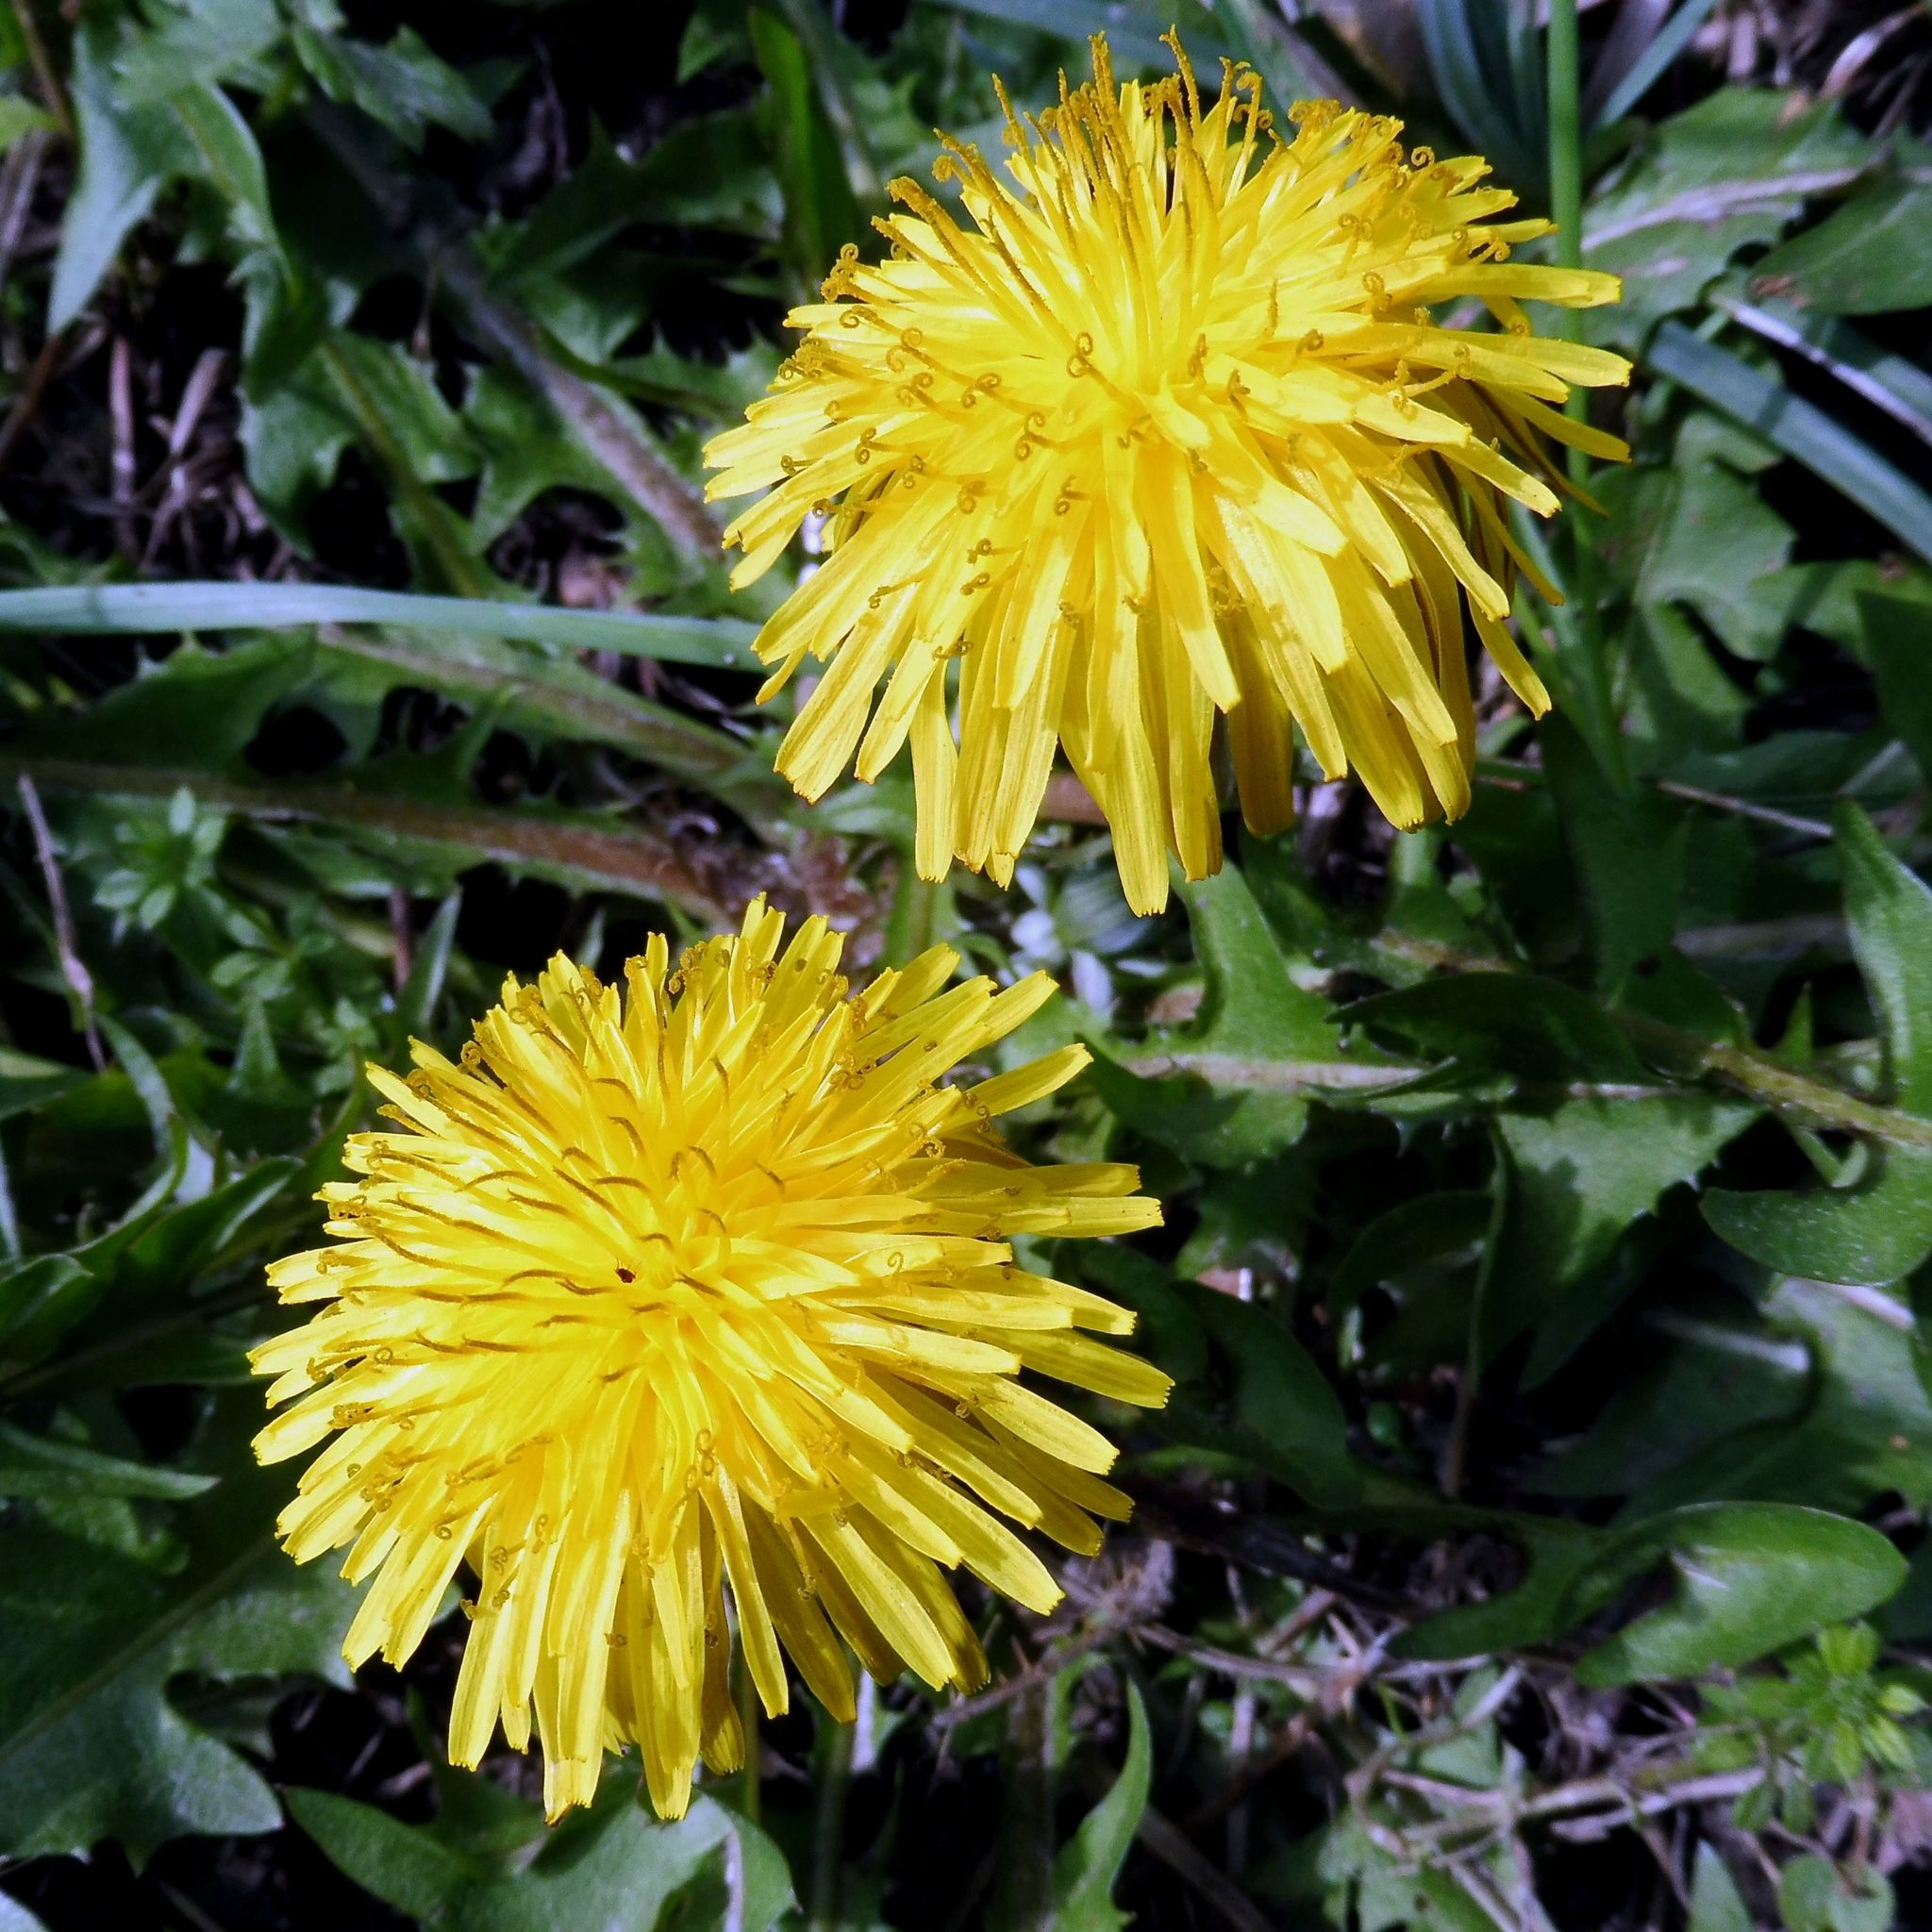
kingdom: Plantae
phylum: Tracheophyta
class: Magnoliopsida
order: Asterales
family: Asteraceae
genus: Taraxacum
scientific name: Taraxacum
